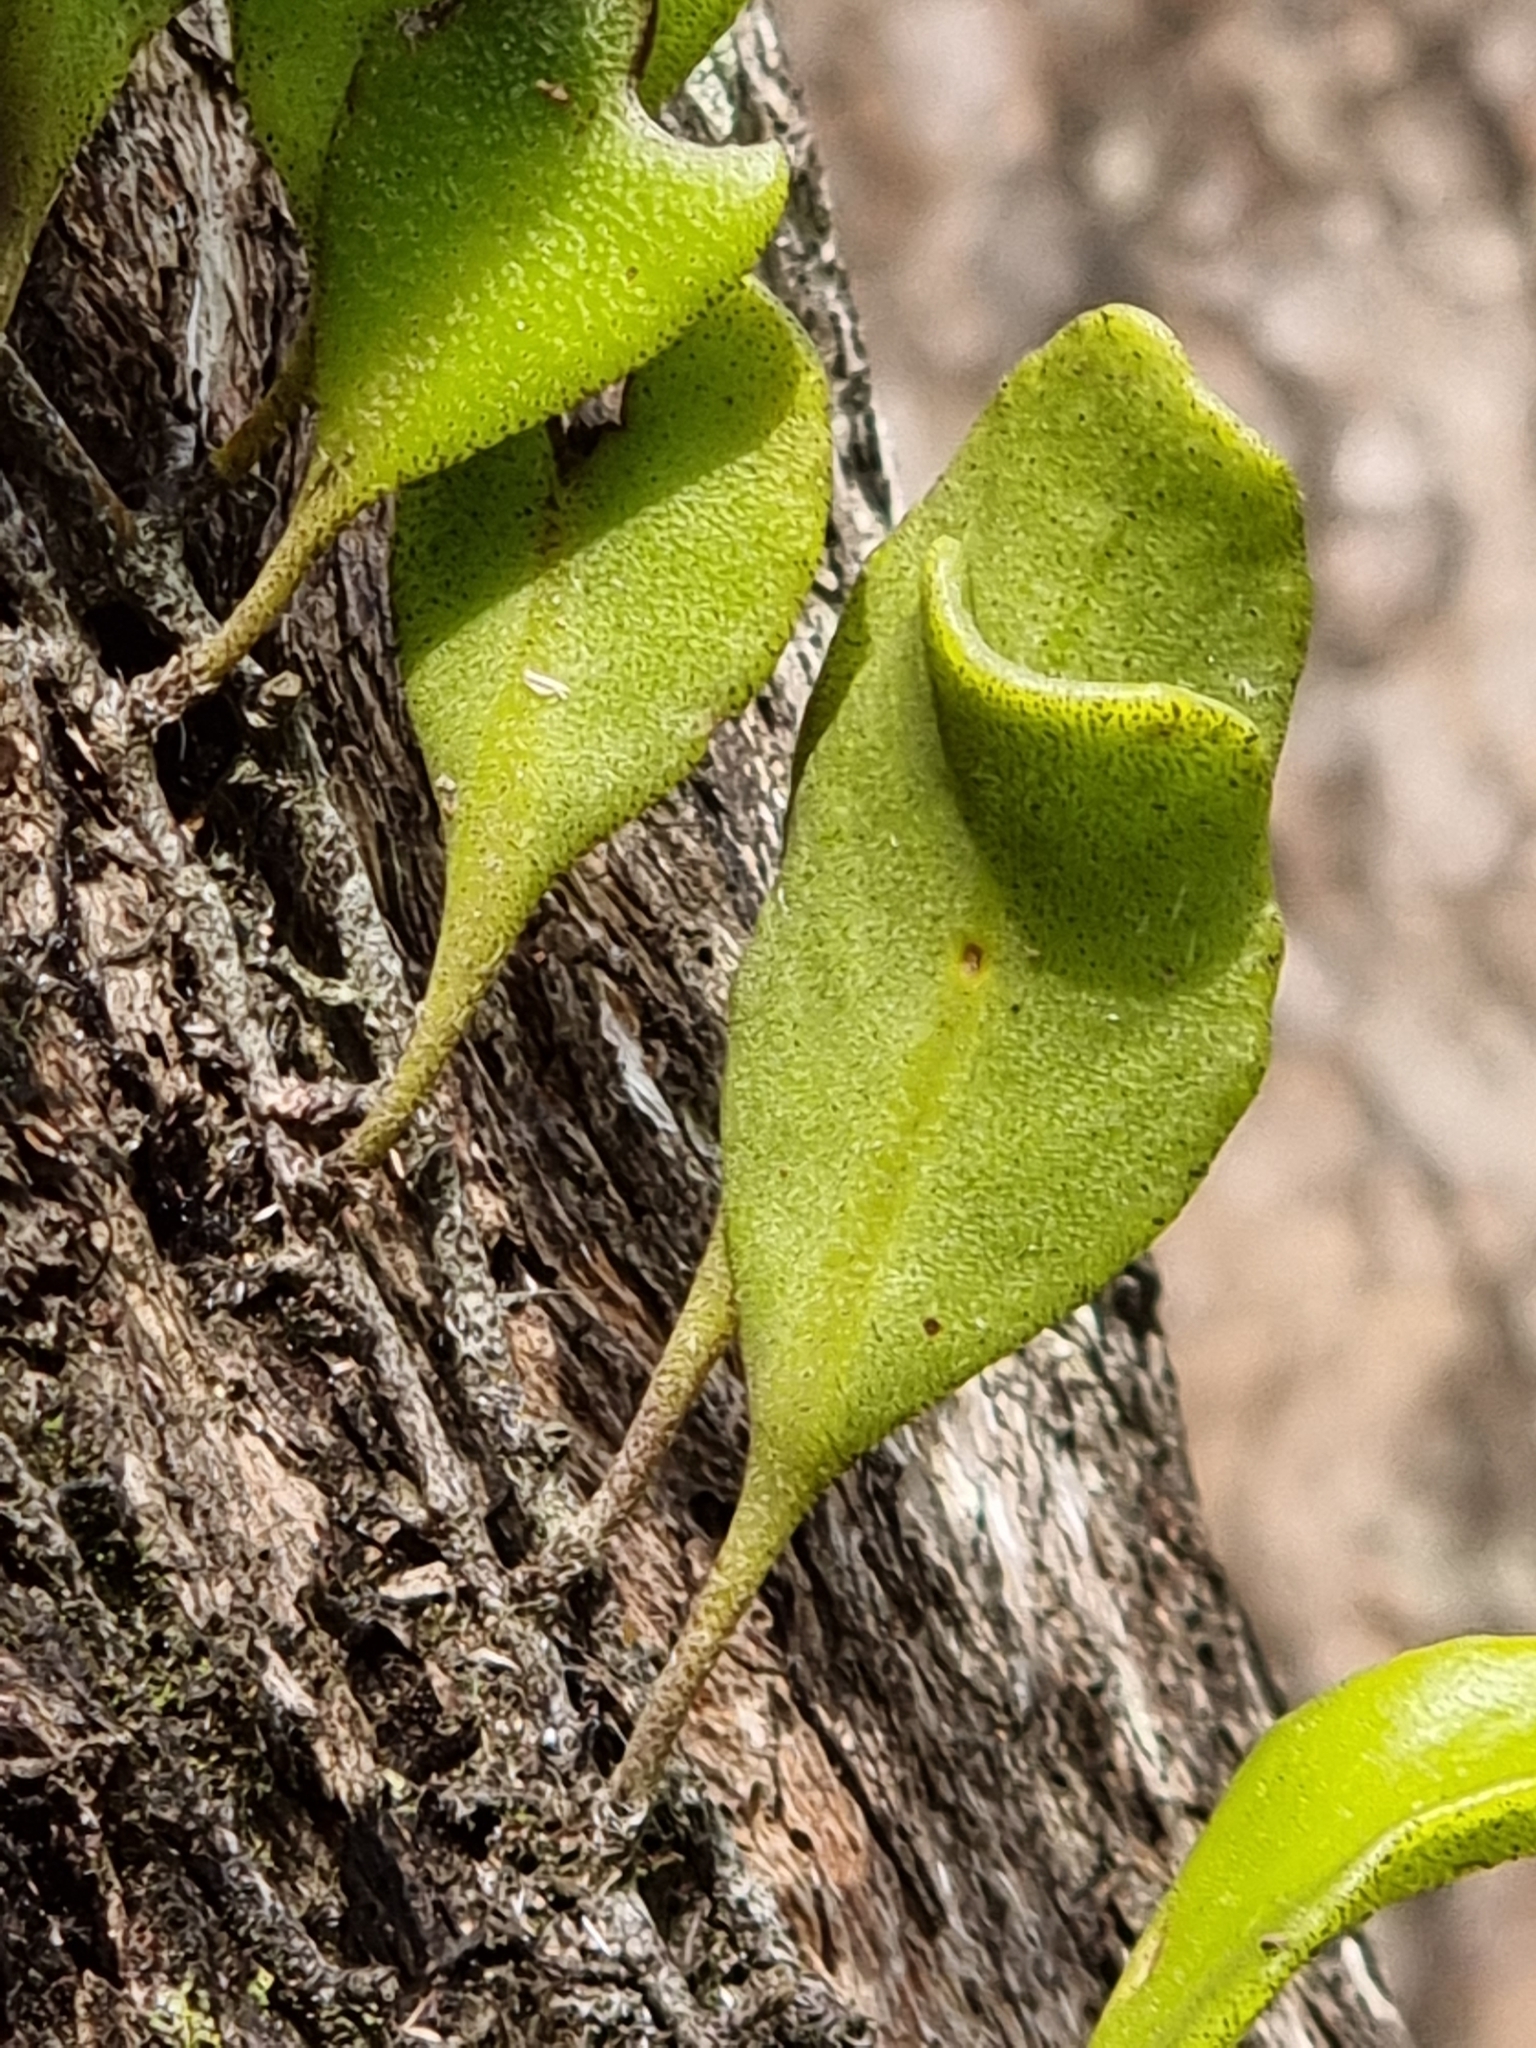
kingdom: Plantae
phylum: Tracheophyta
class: Polypodiopsida
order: Polypodiales
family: Polypodiaceae
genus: Pyrrosia
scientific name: Pyrrosia confluens
